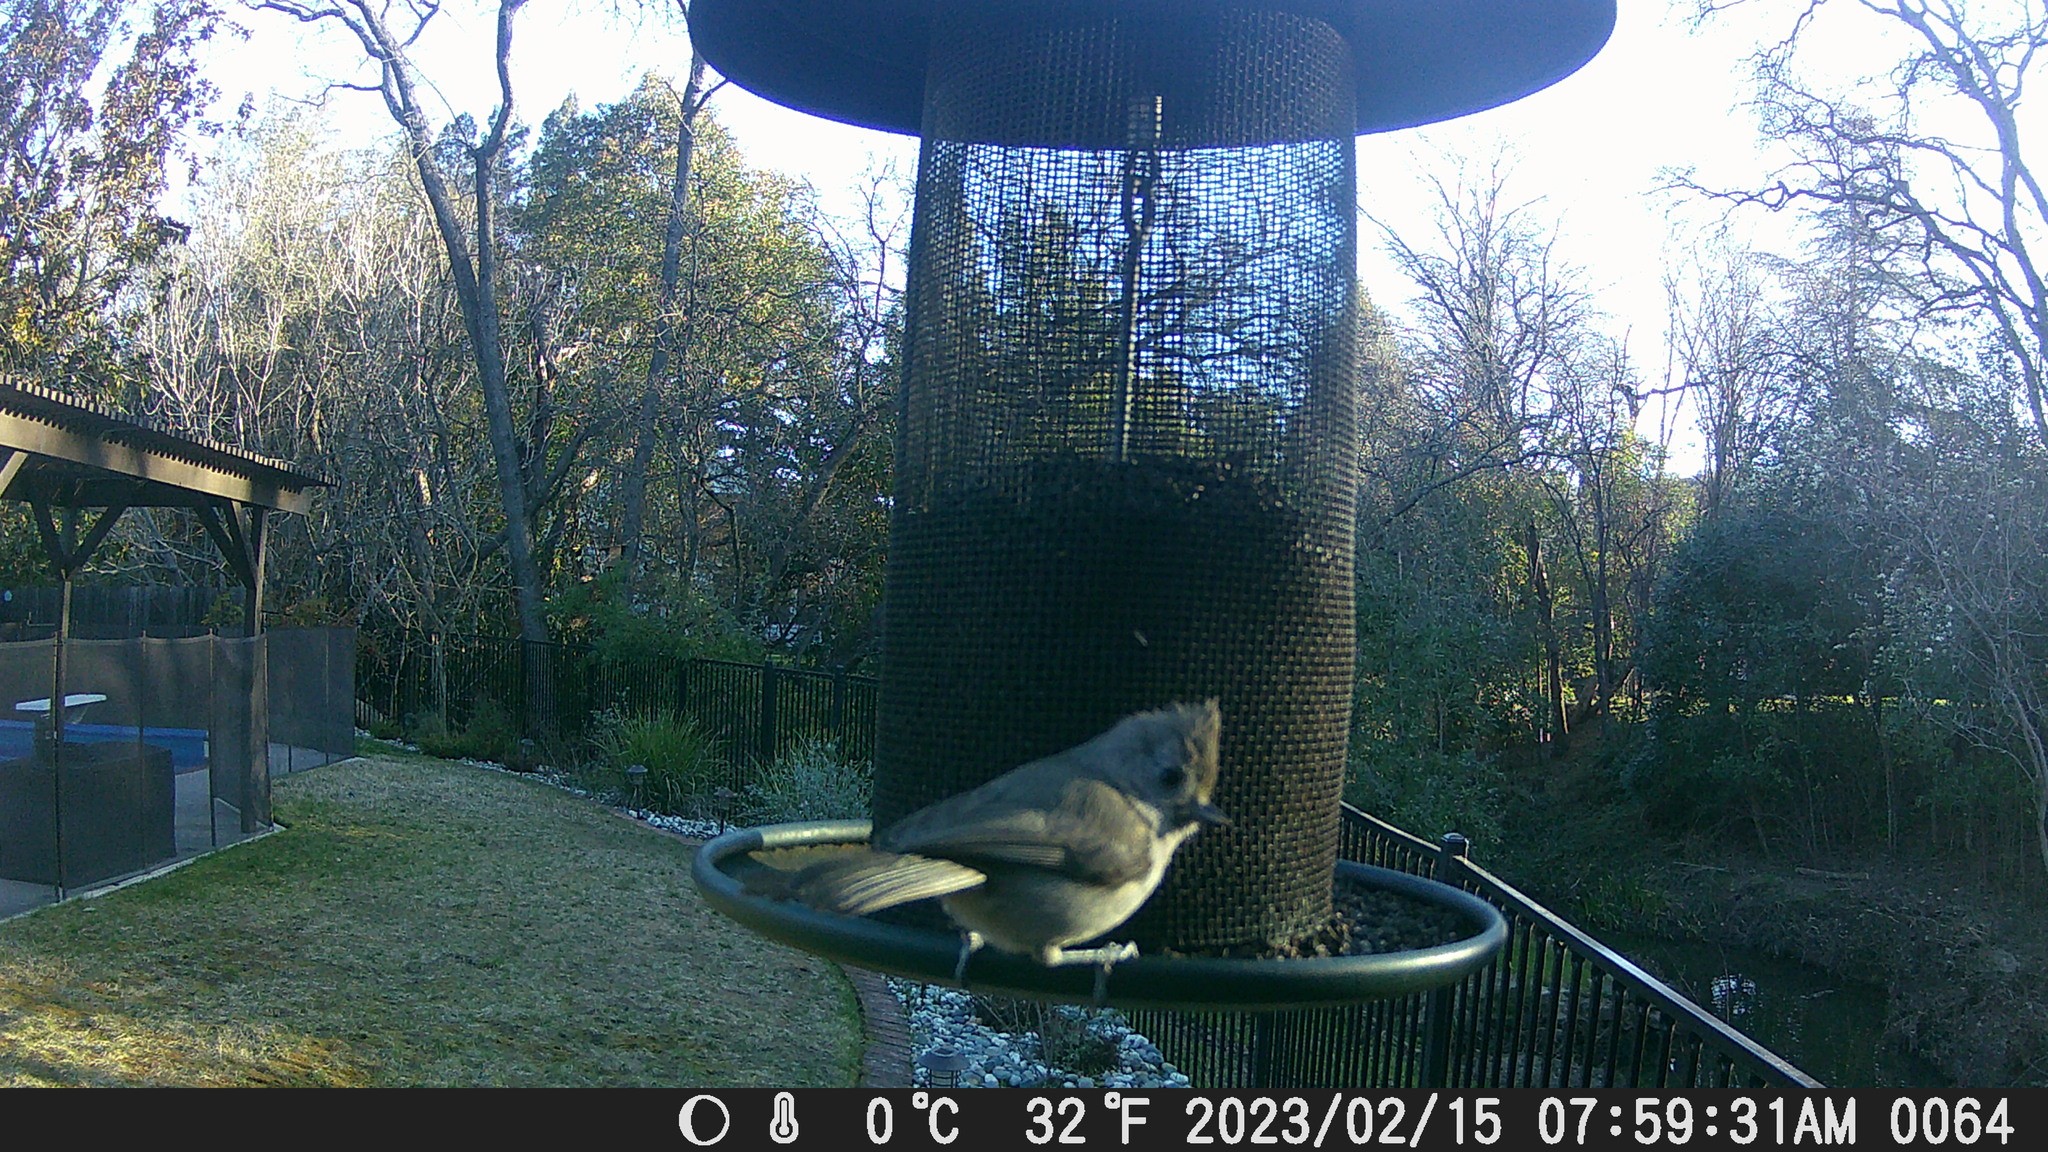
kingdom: Animalia
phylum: Chordata
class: Aves
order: Passeriformes
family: Paridae
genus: Baeolophus
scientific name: Baeolophus inornatus
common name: Oak titmouse
